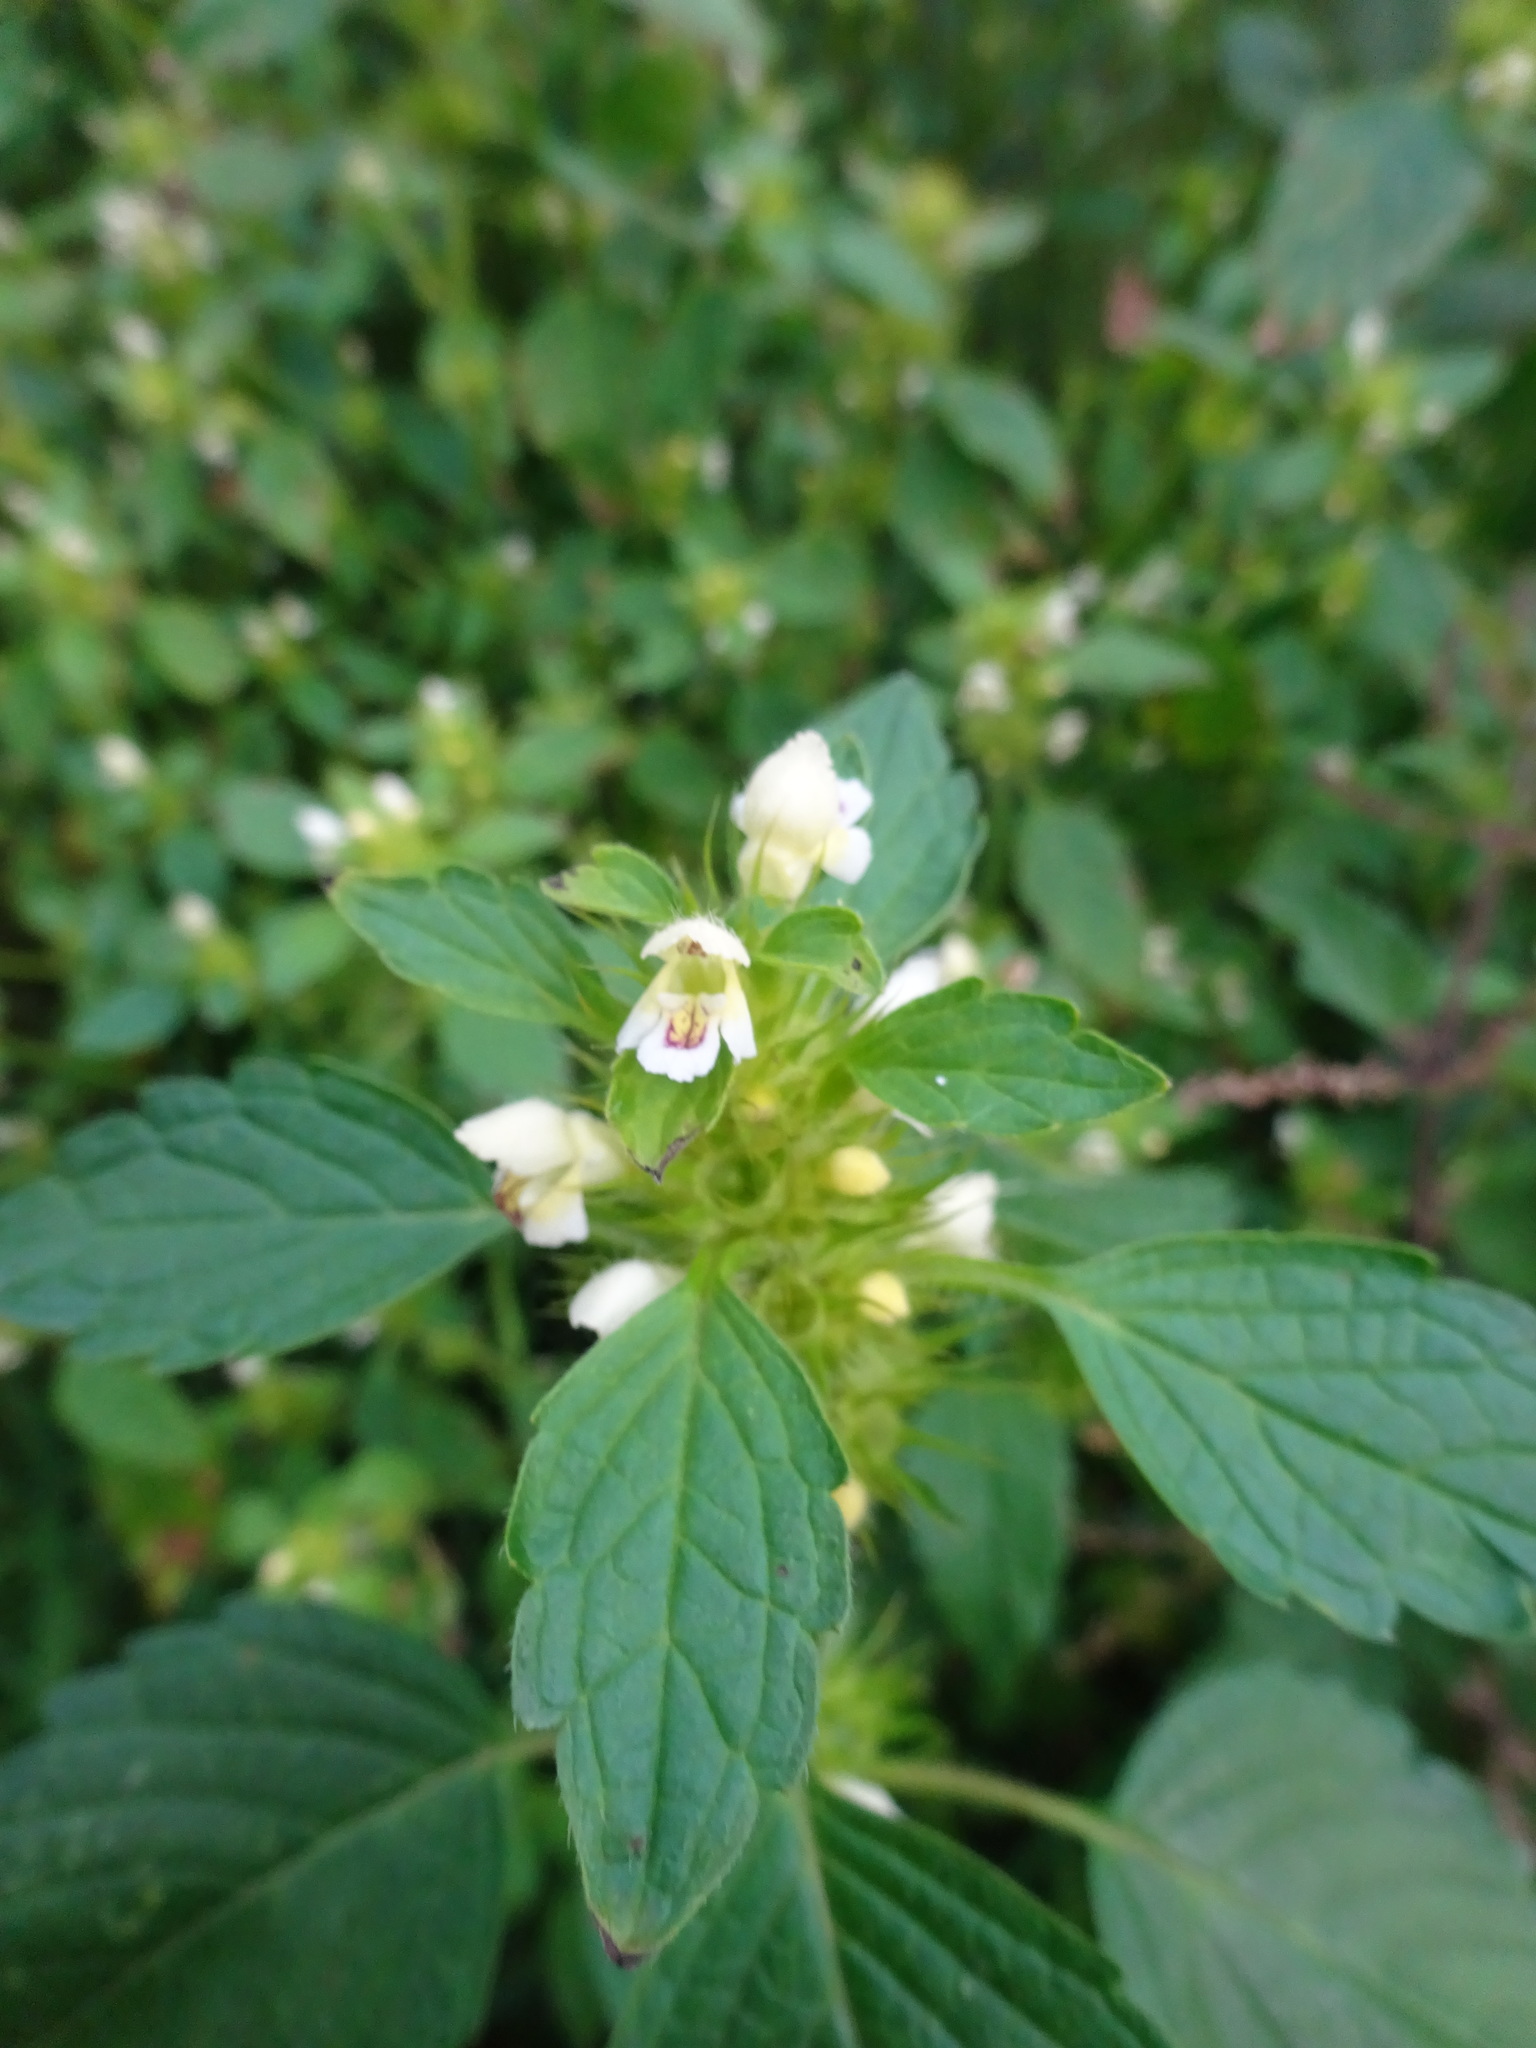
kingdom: Plantae
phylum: Tracheophyta
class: Magnoliopsida
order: Lamiales
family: Lamiaceae
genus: Galeopsis
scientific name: Galeopsis tetrahit
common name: Common hemp-nettle
